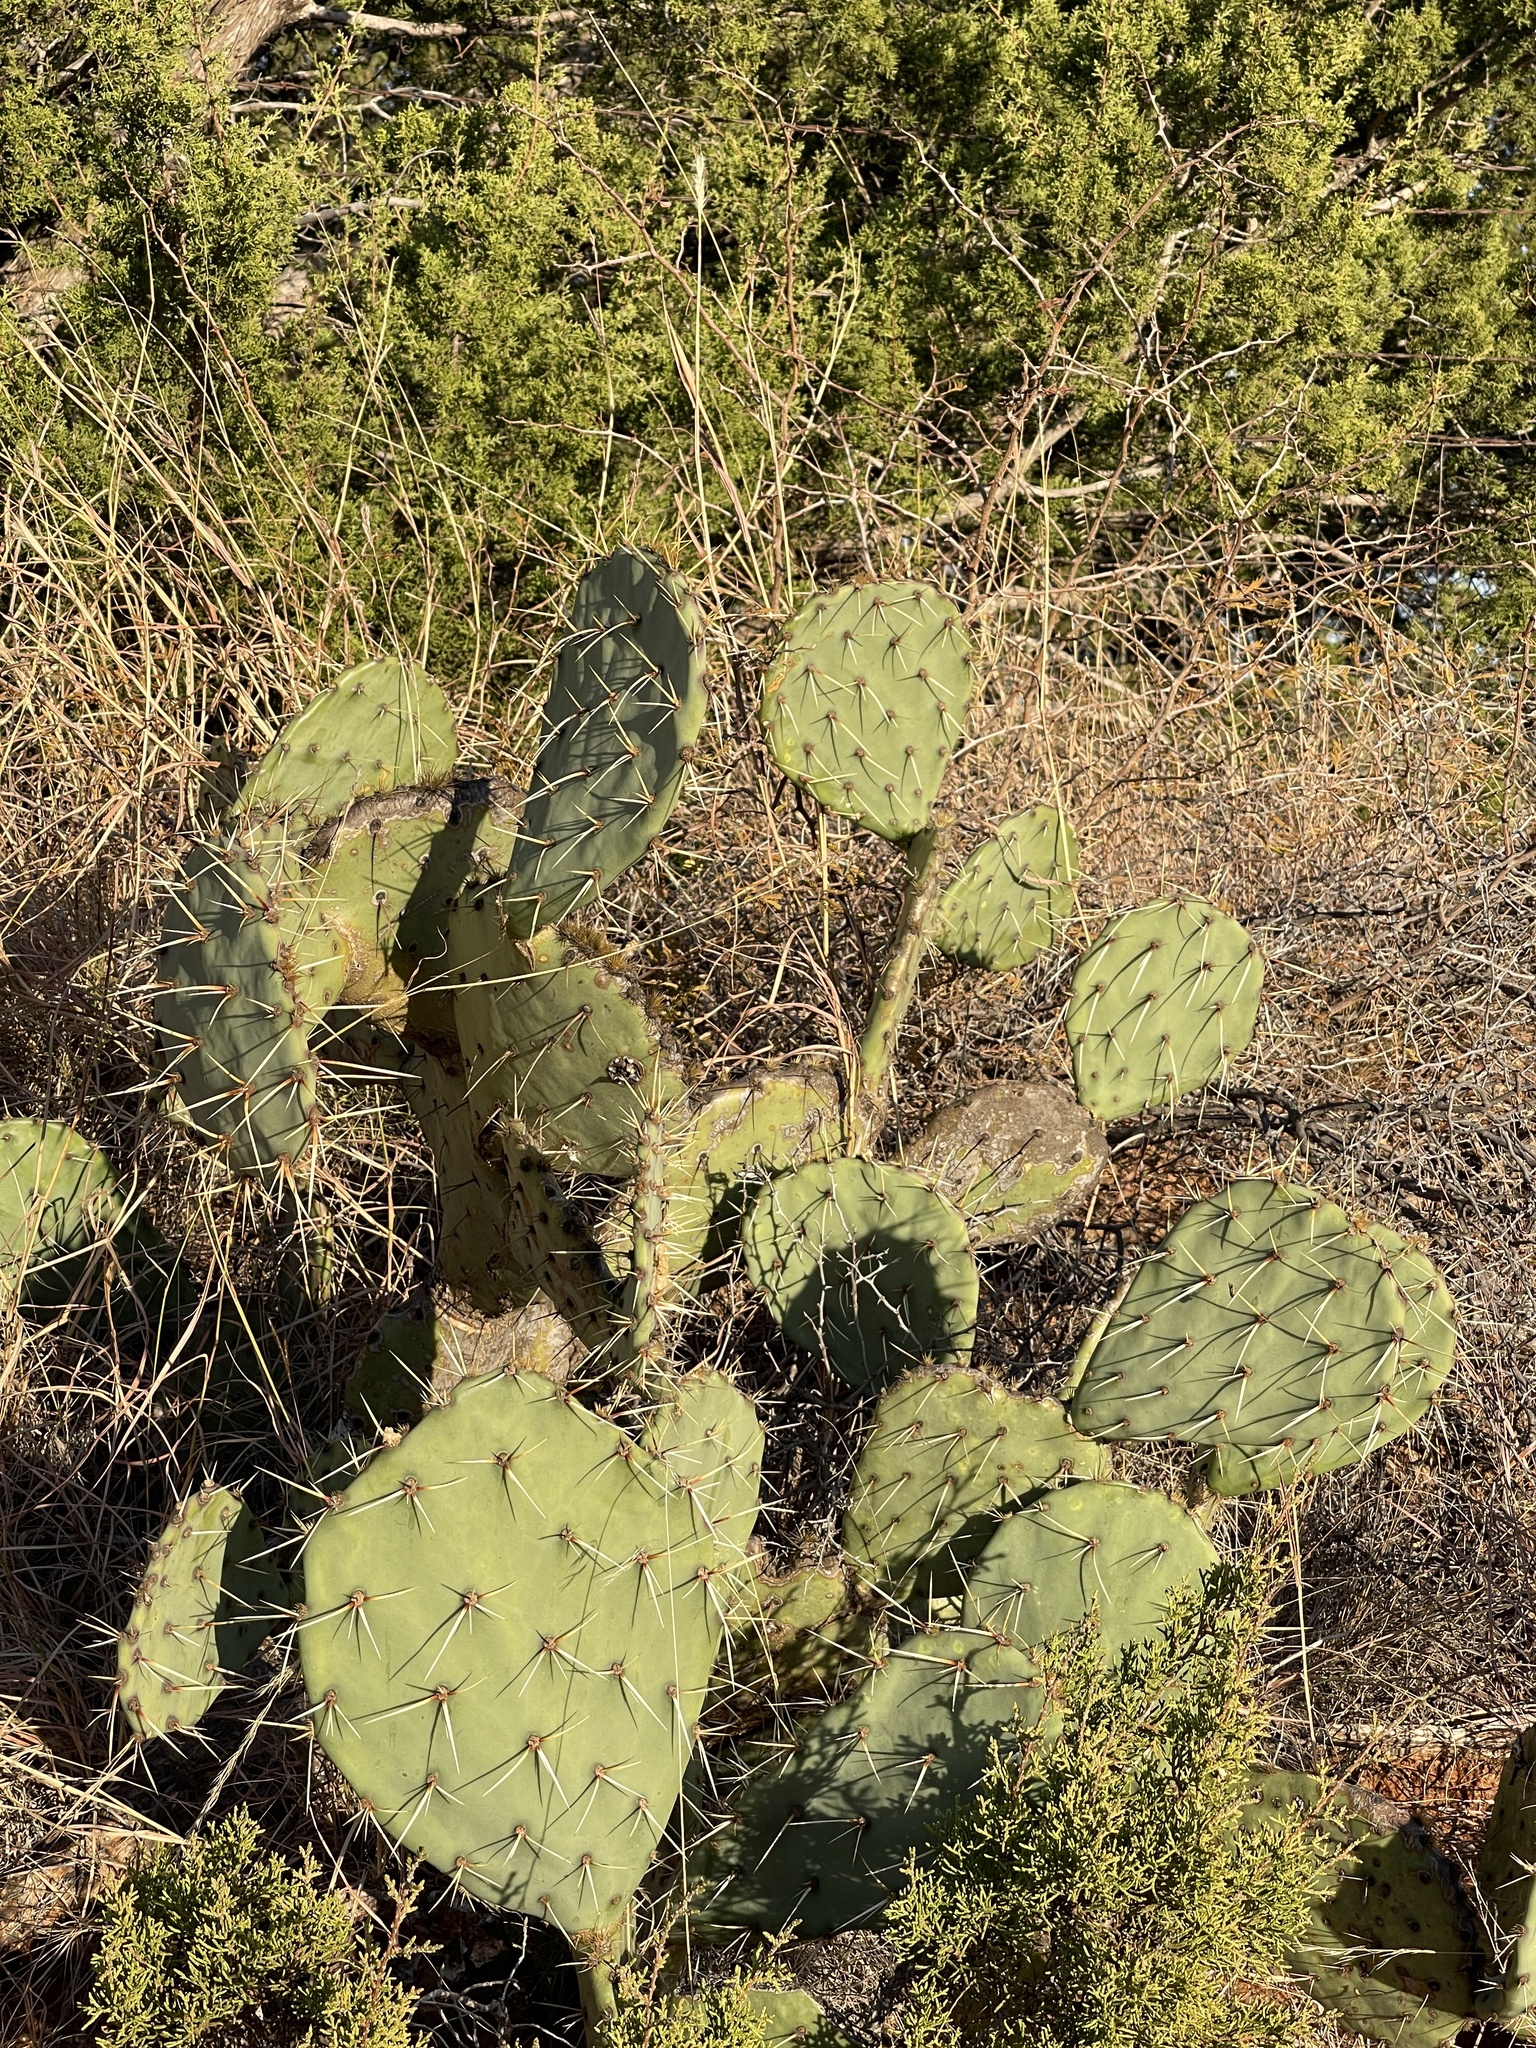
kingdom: Plantae
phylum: Tracheophyta
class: Magnoliopsida
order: Caryophyllales
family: Cactaceae
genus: Opuntia
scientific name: Opuntia engelmannii
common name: Cactus-apple
